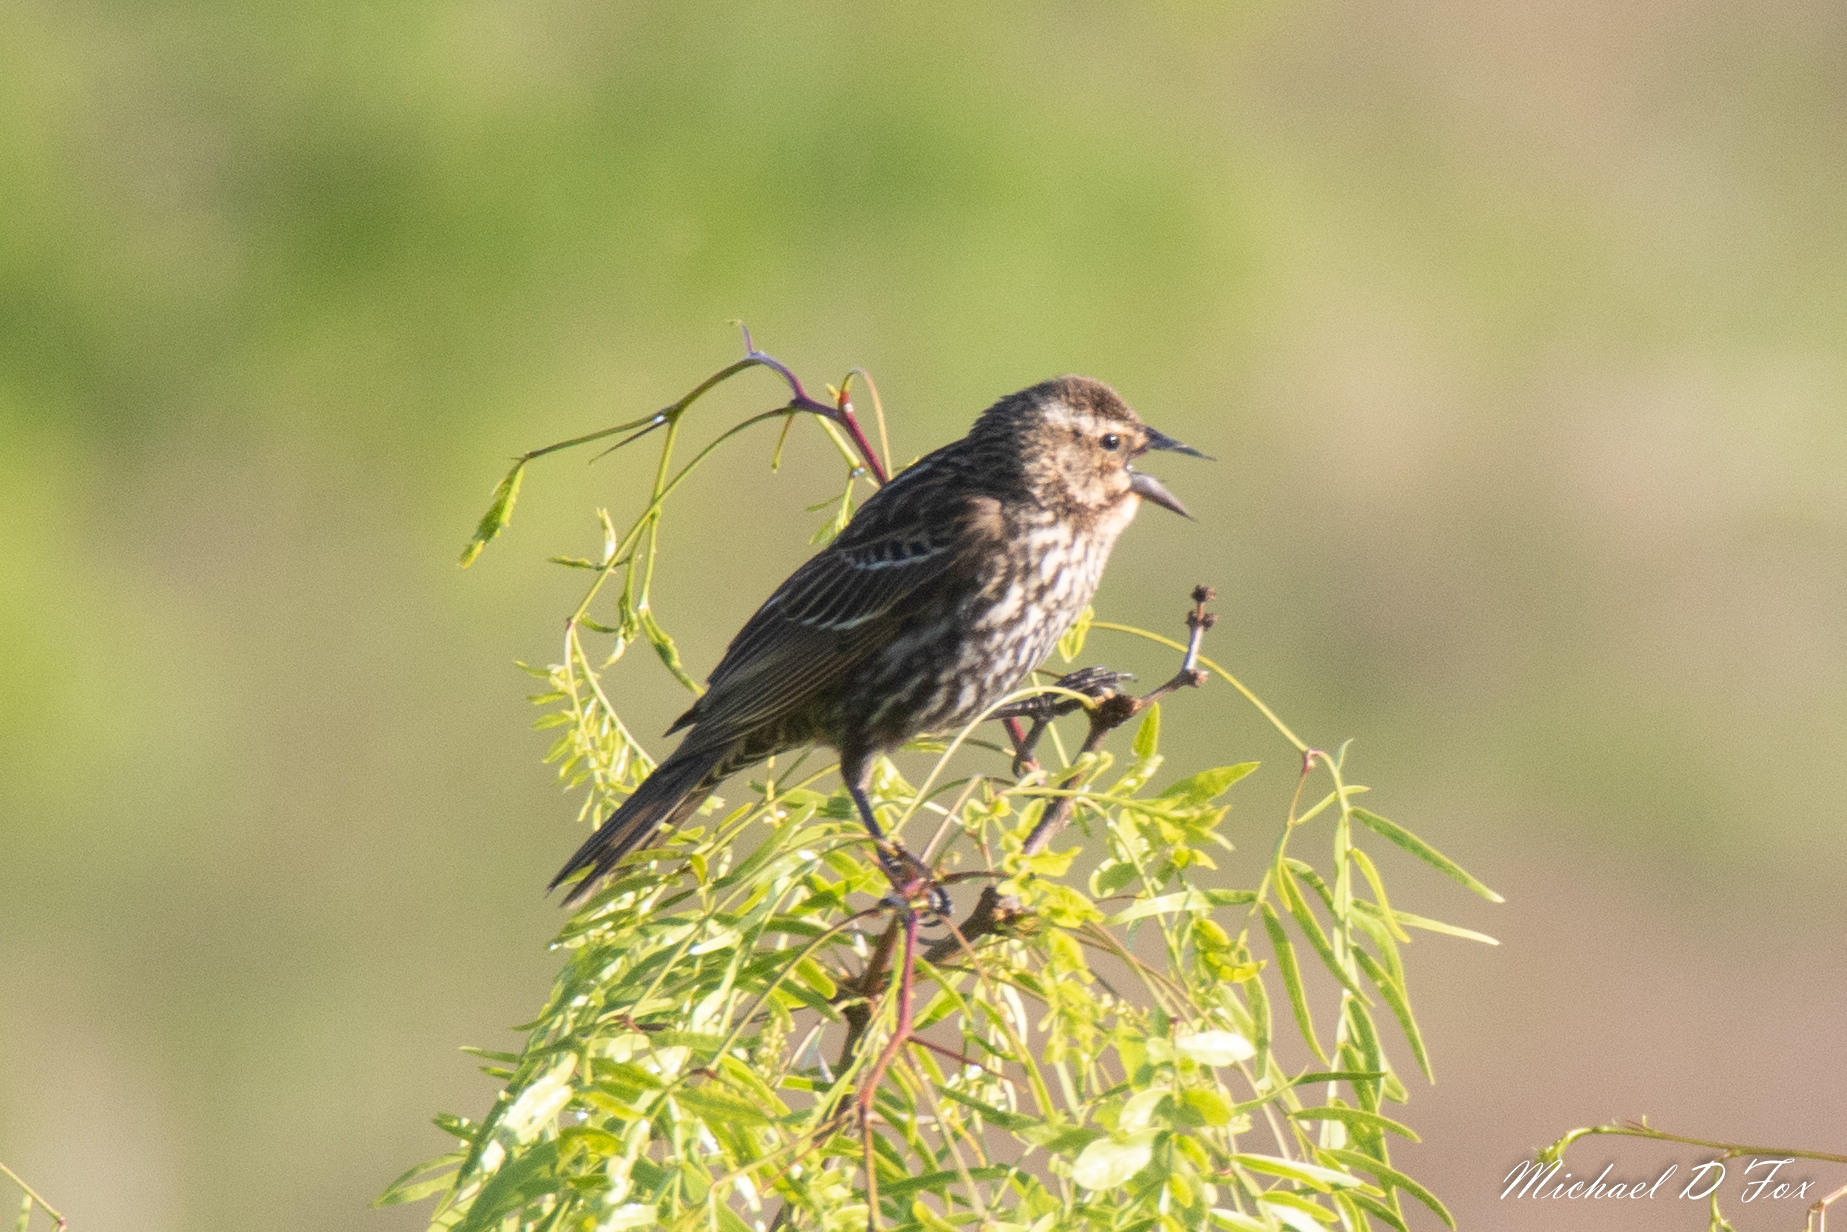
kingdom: Animalia
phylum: Chordata
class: Aves
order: Passeriformes
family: Icteridae
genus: Agelaius
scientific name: Agelaius phoeniceus
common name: Red-winged blackbird
